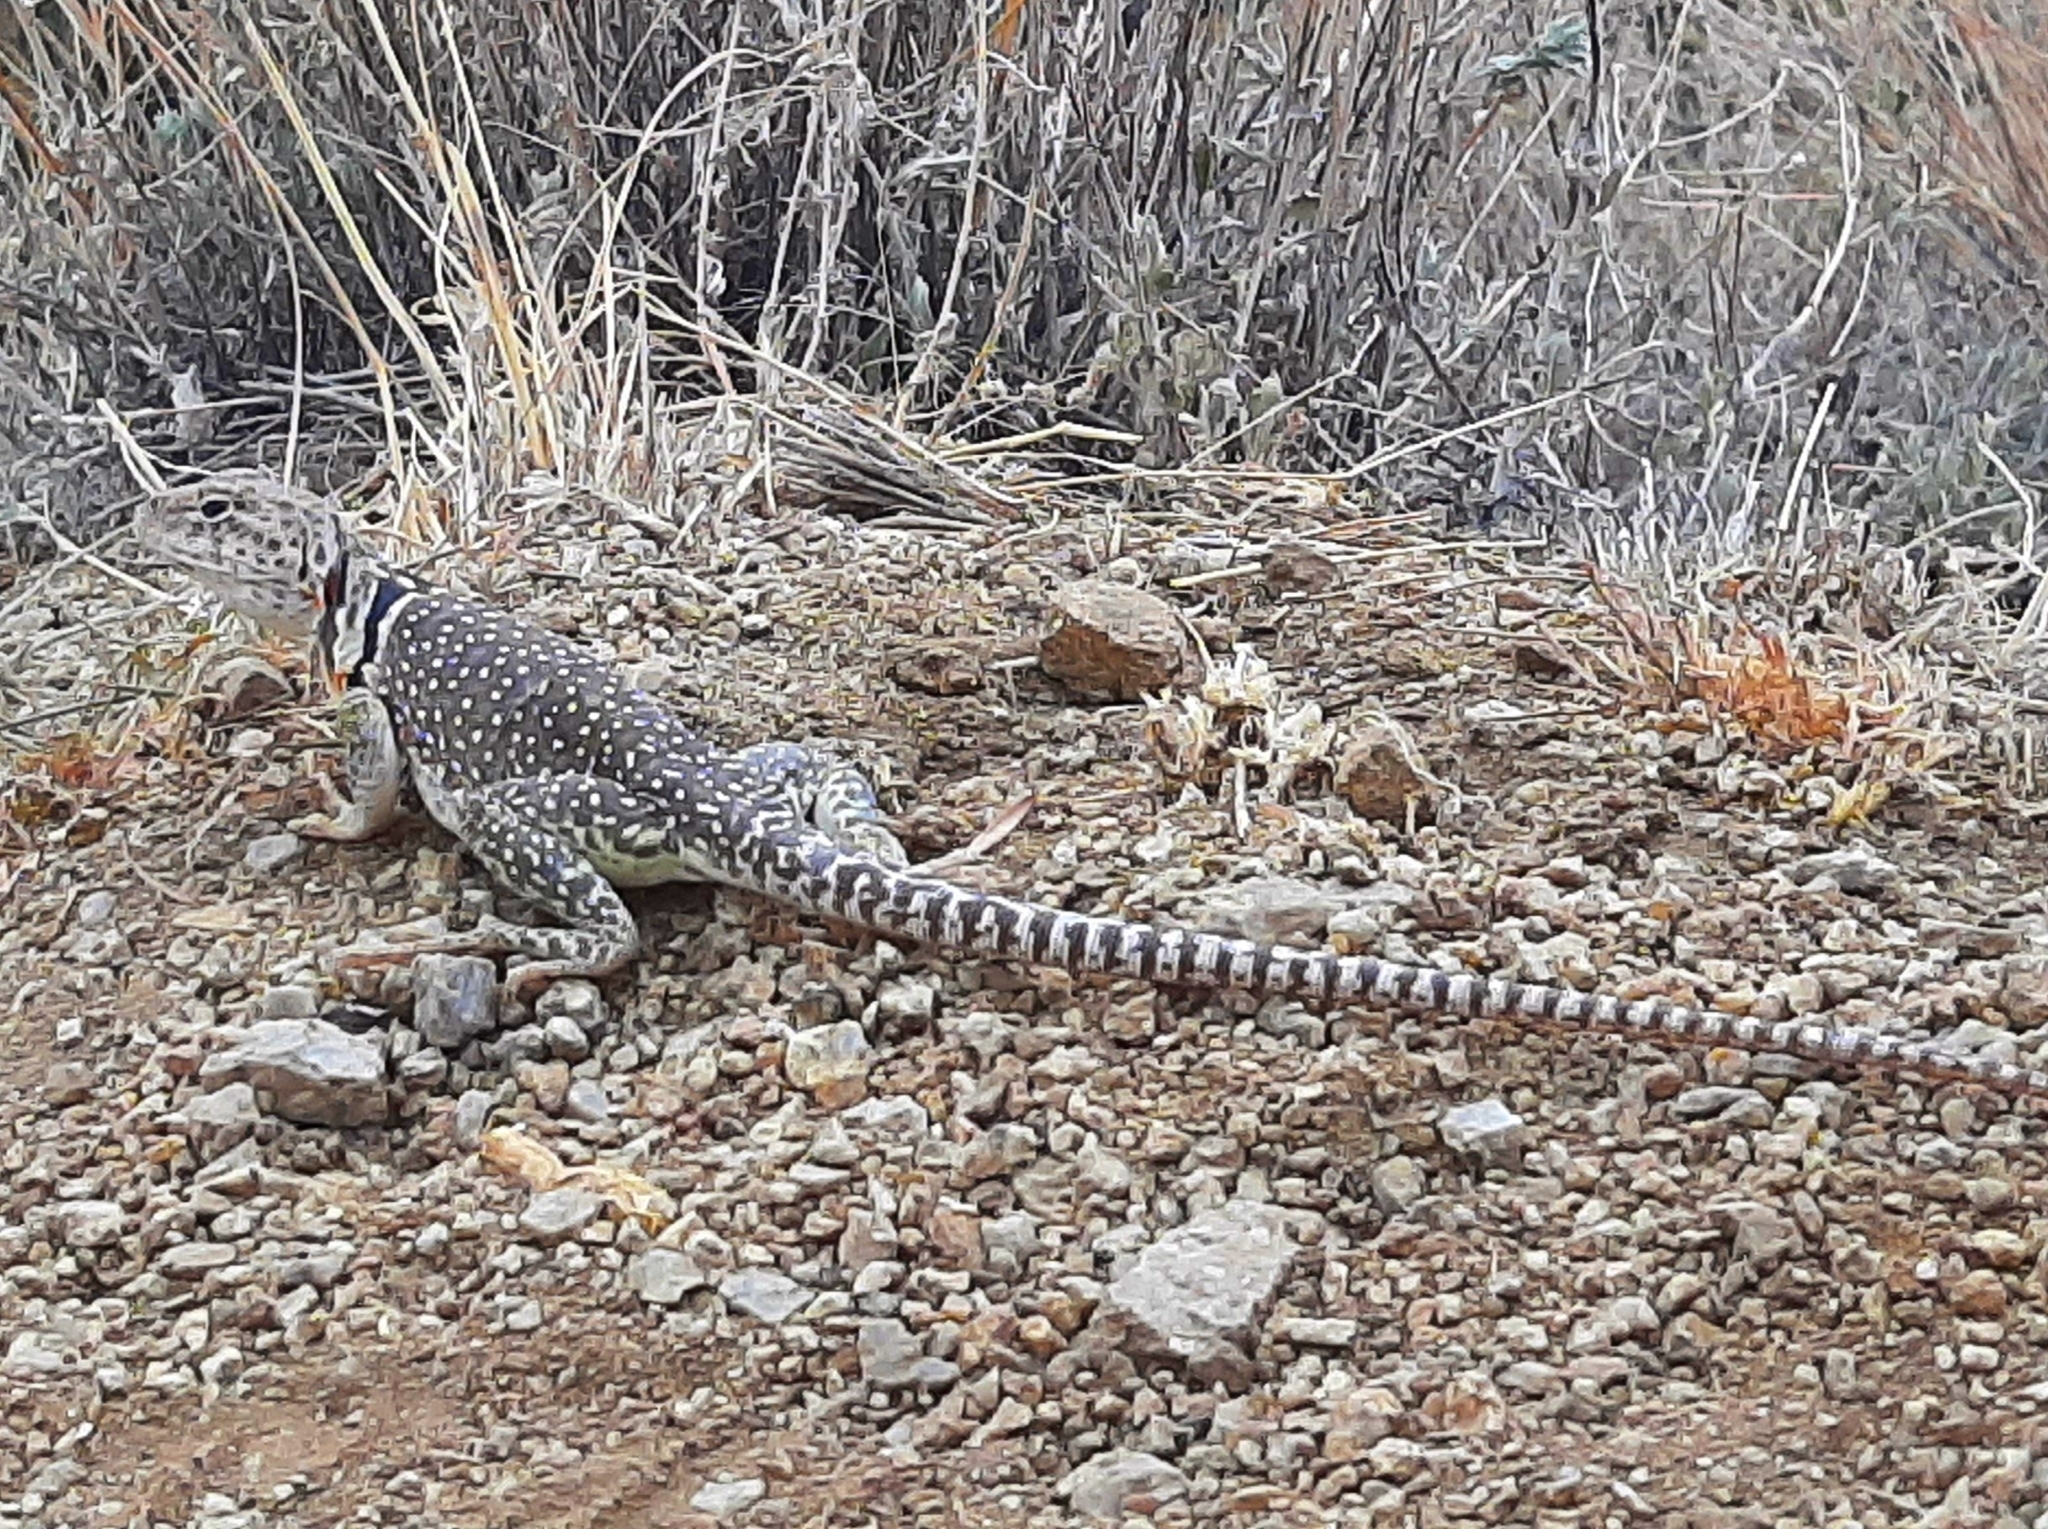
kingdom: Animalia
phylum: Chordata
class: Squamata
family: Crotaphytidae
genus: Crotaphytus
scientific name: Crotaphytus collaris
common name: Collared lizard
